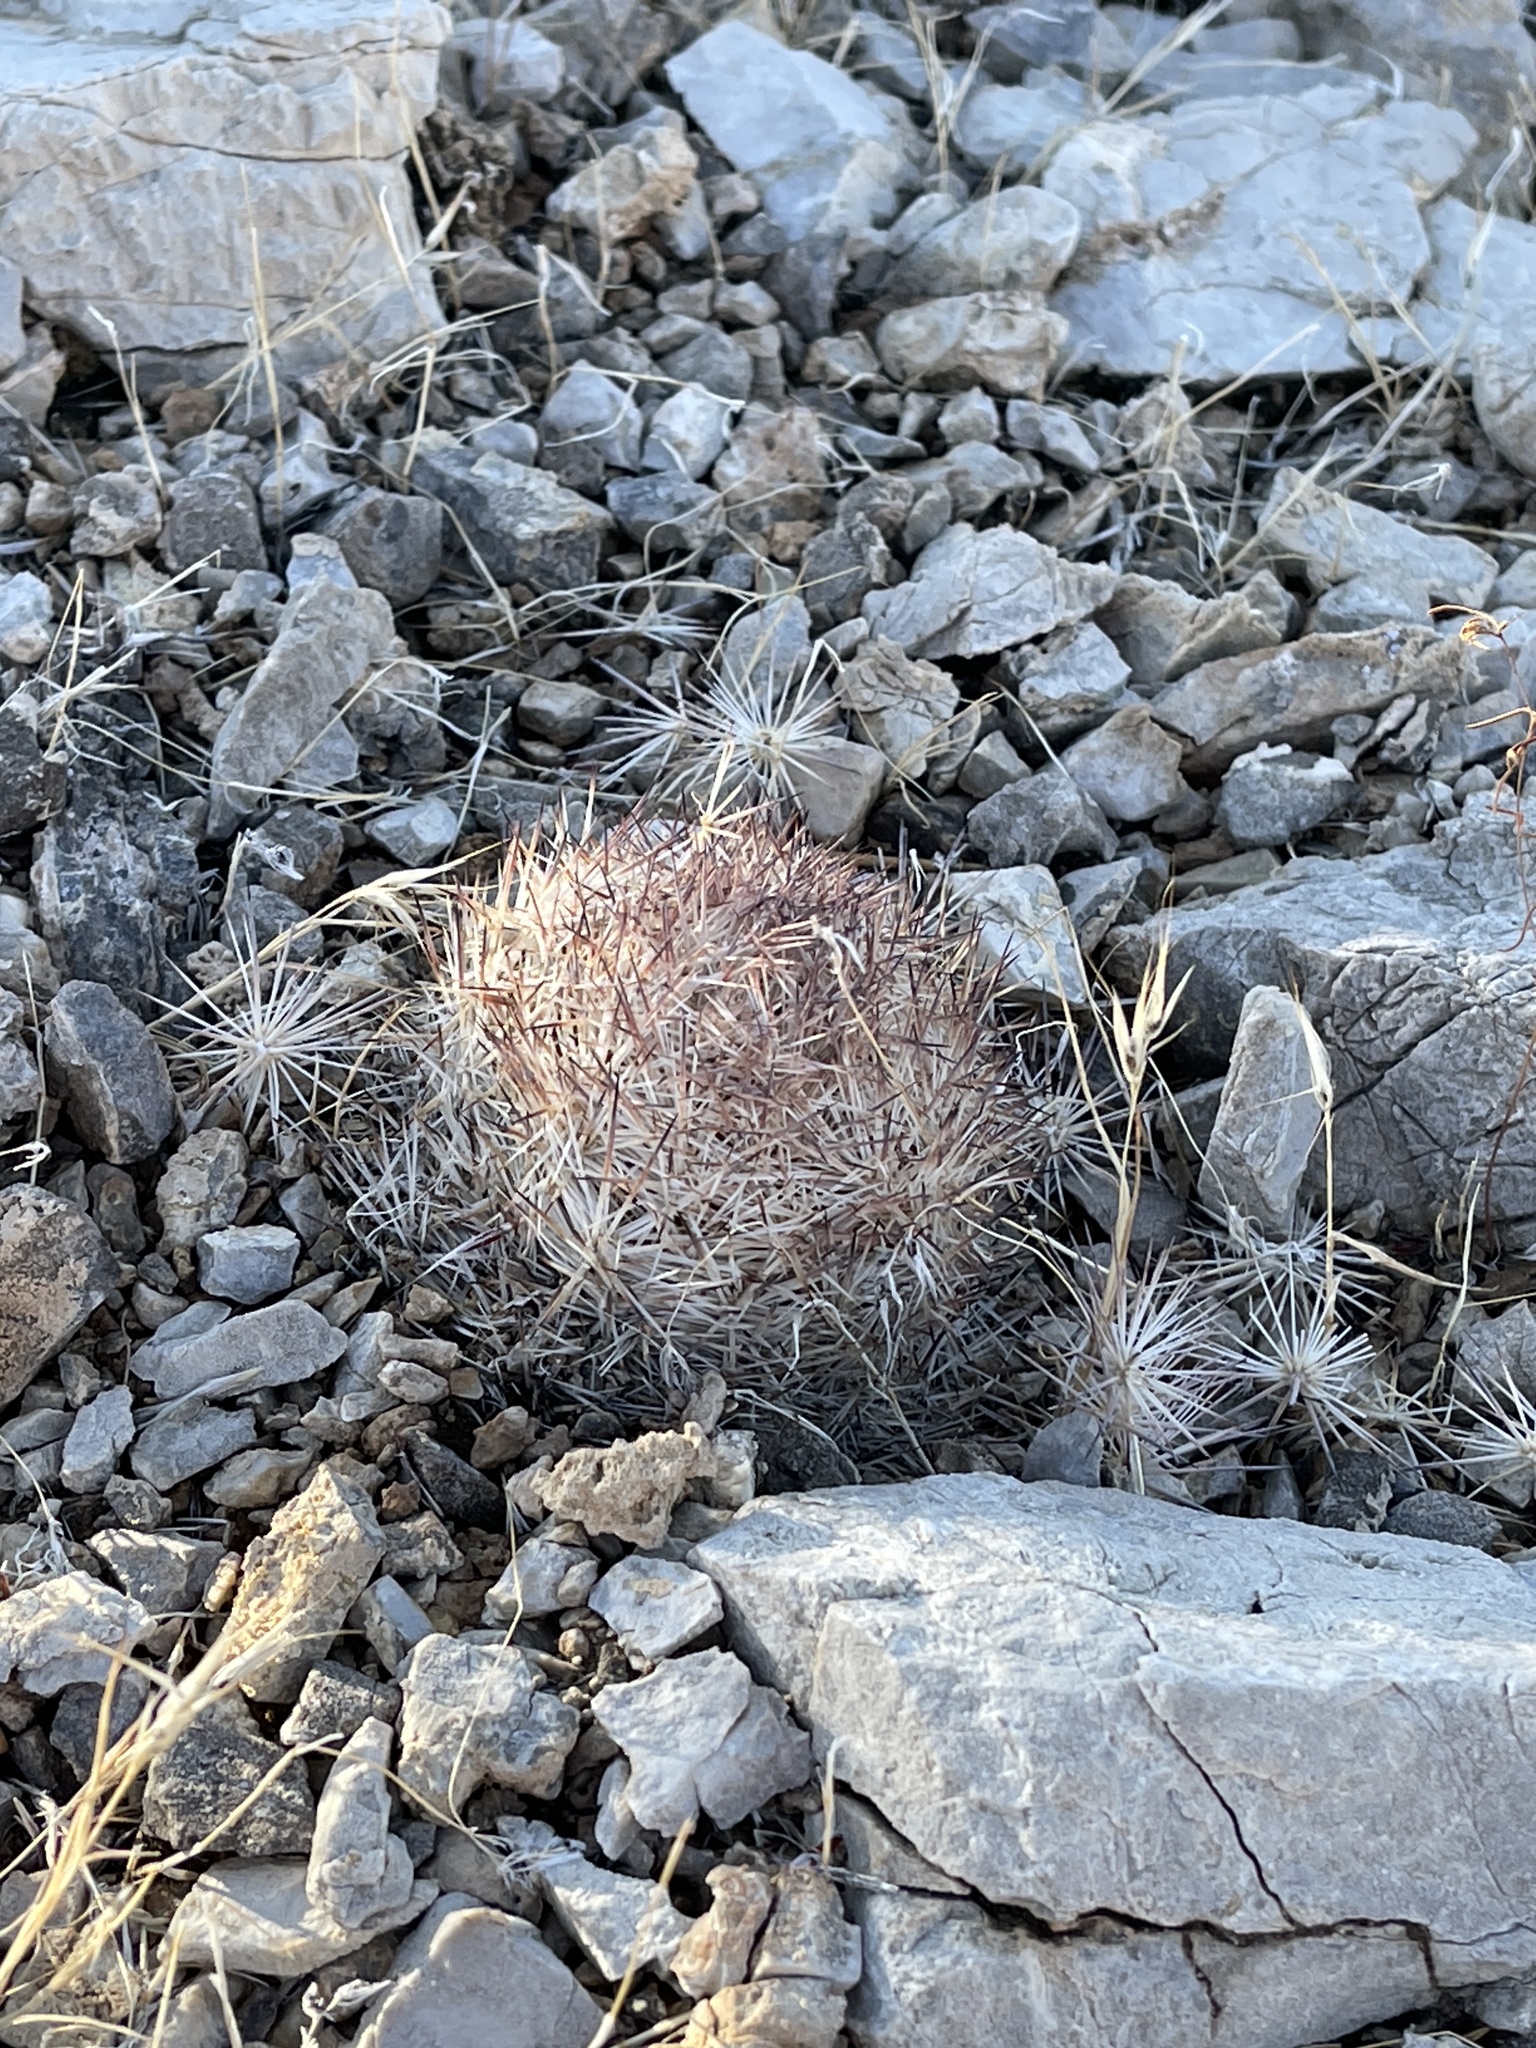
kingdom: Plantae
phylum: Tracheophyta
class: Magnoliopsida
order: Caryophyllales
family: Cactaceae
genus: Pelecyphora
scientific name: Pelecyphora dasyacantha
